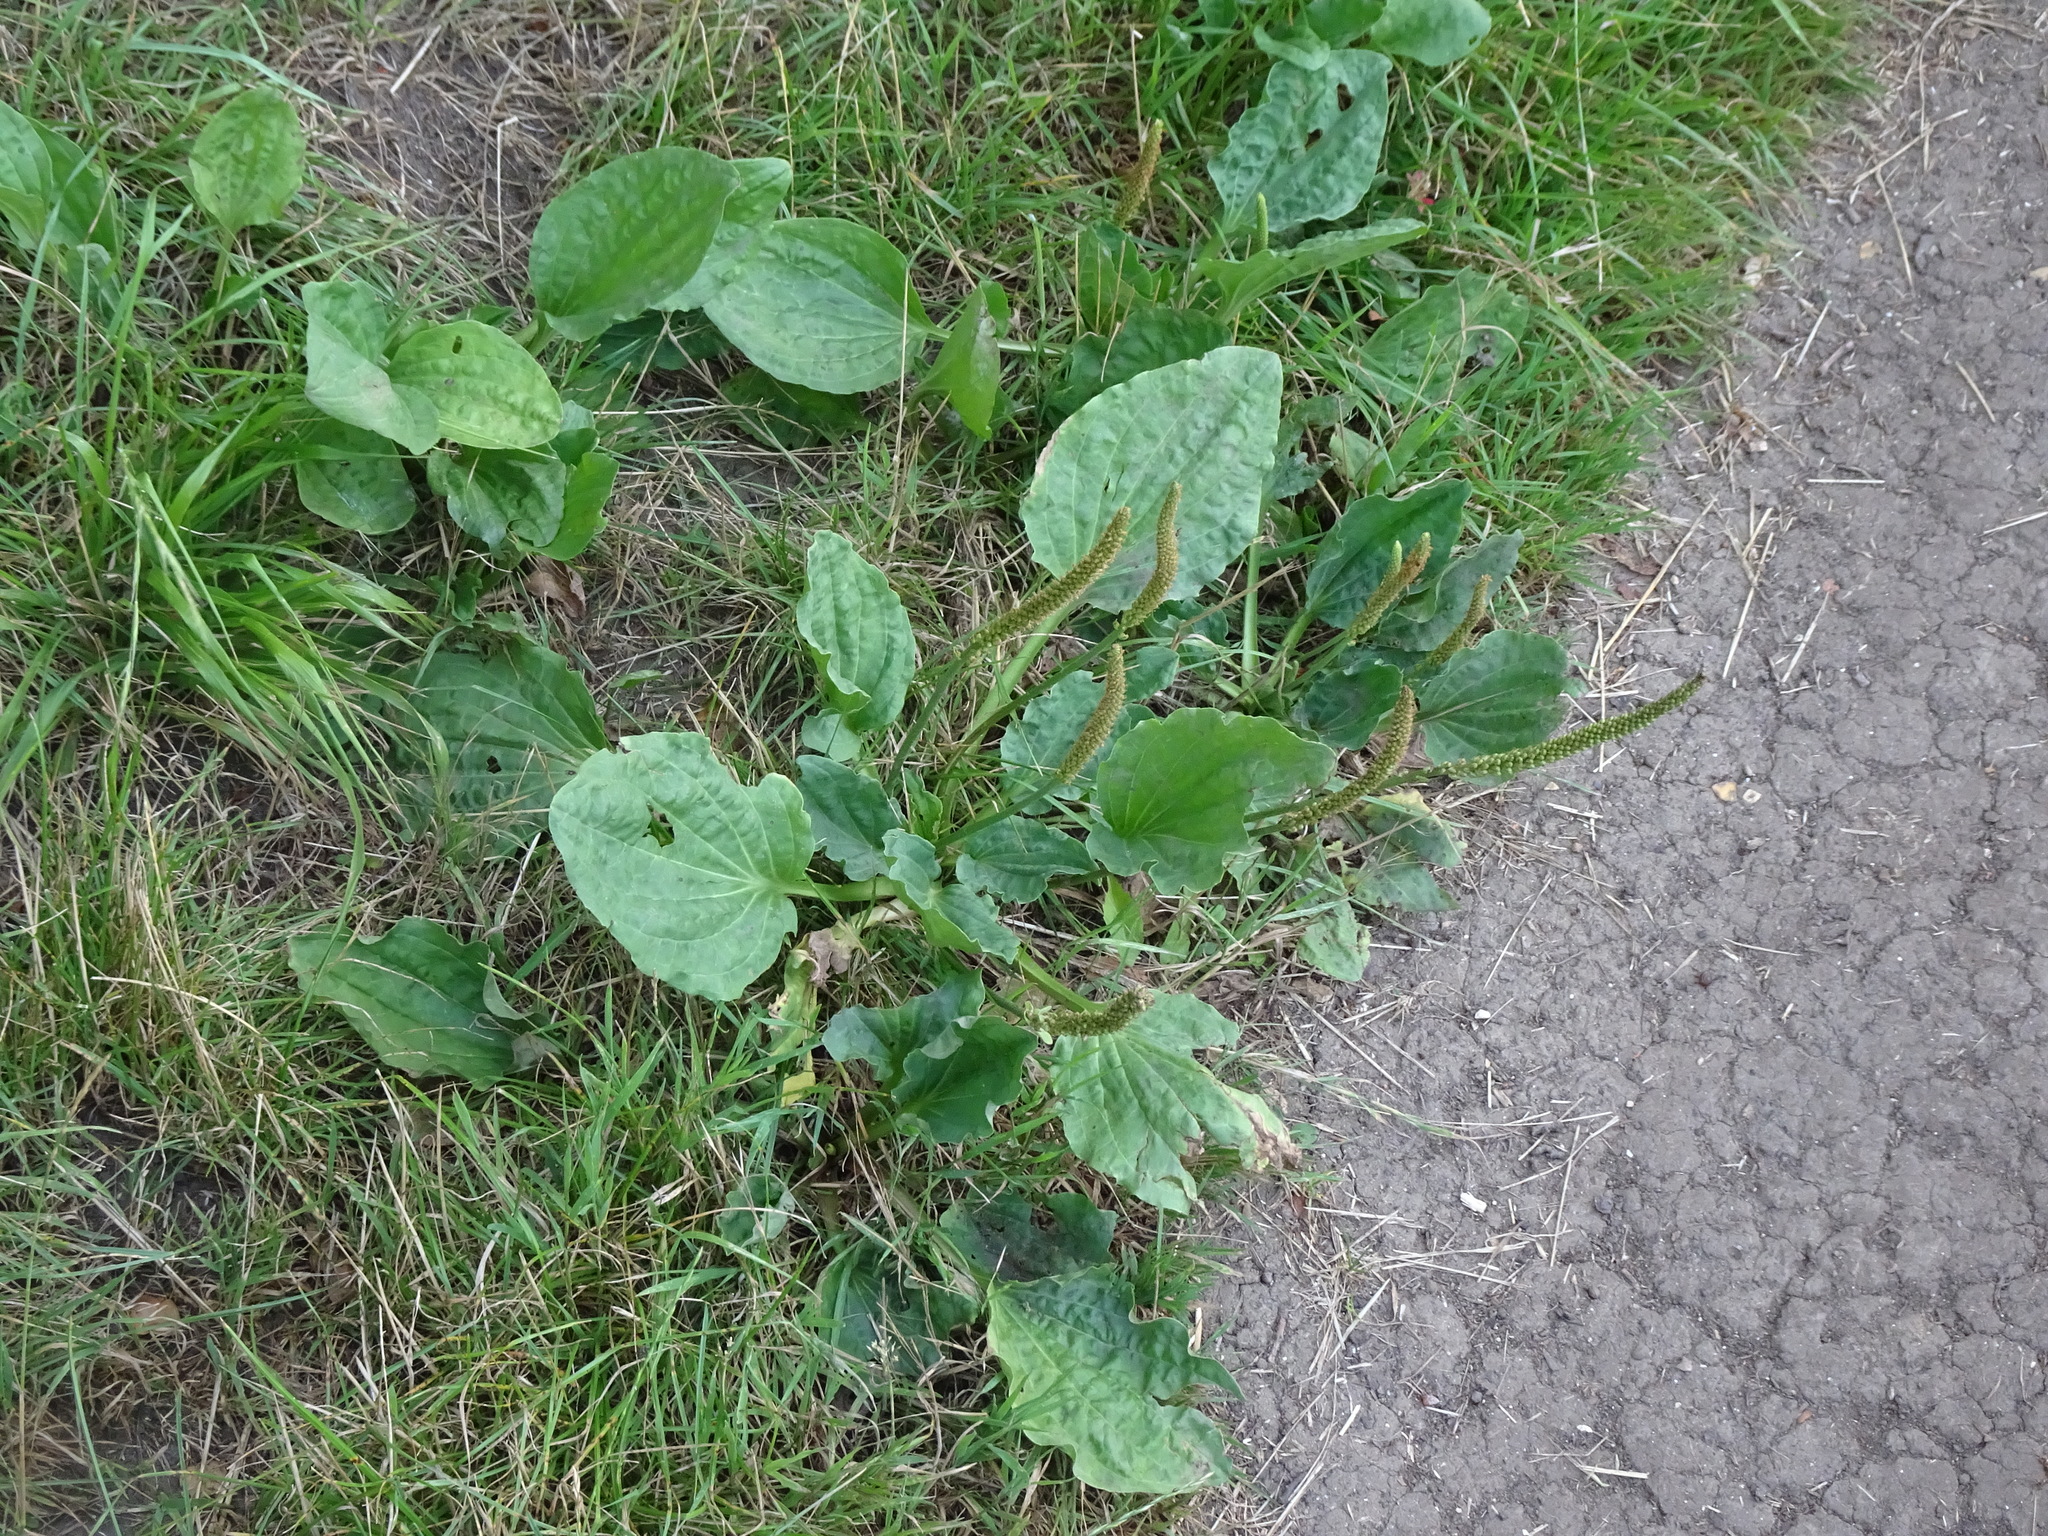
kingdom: Plantae
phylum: Tracheophyta
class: Magnoliopsida
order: Lamiales
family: Plantaginaceae
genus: Plantago
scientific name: Plantago major
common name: Common plantain
